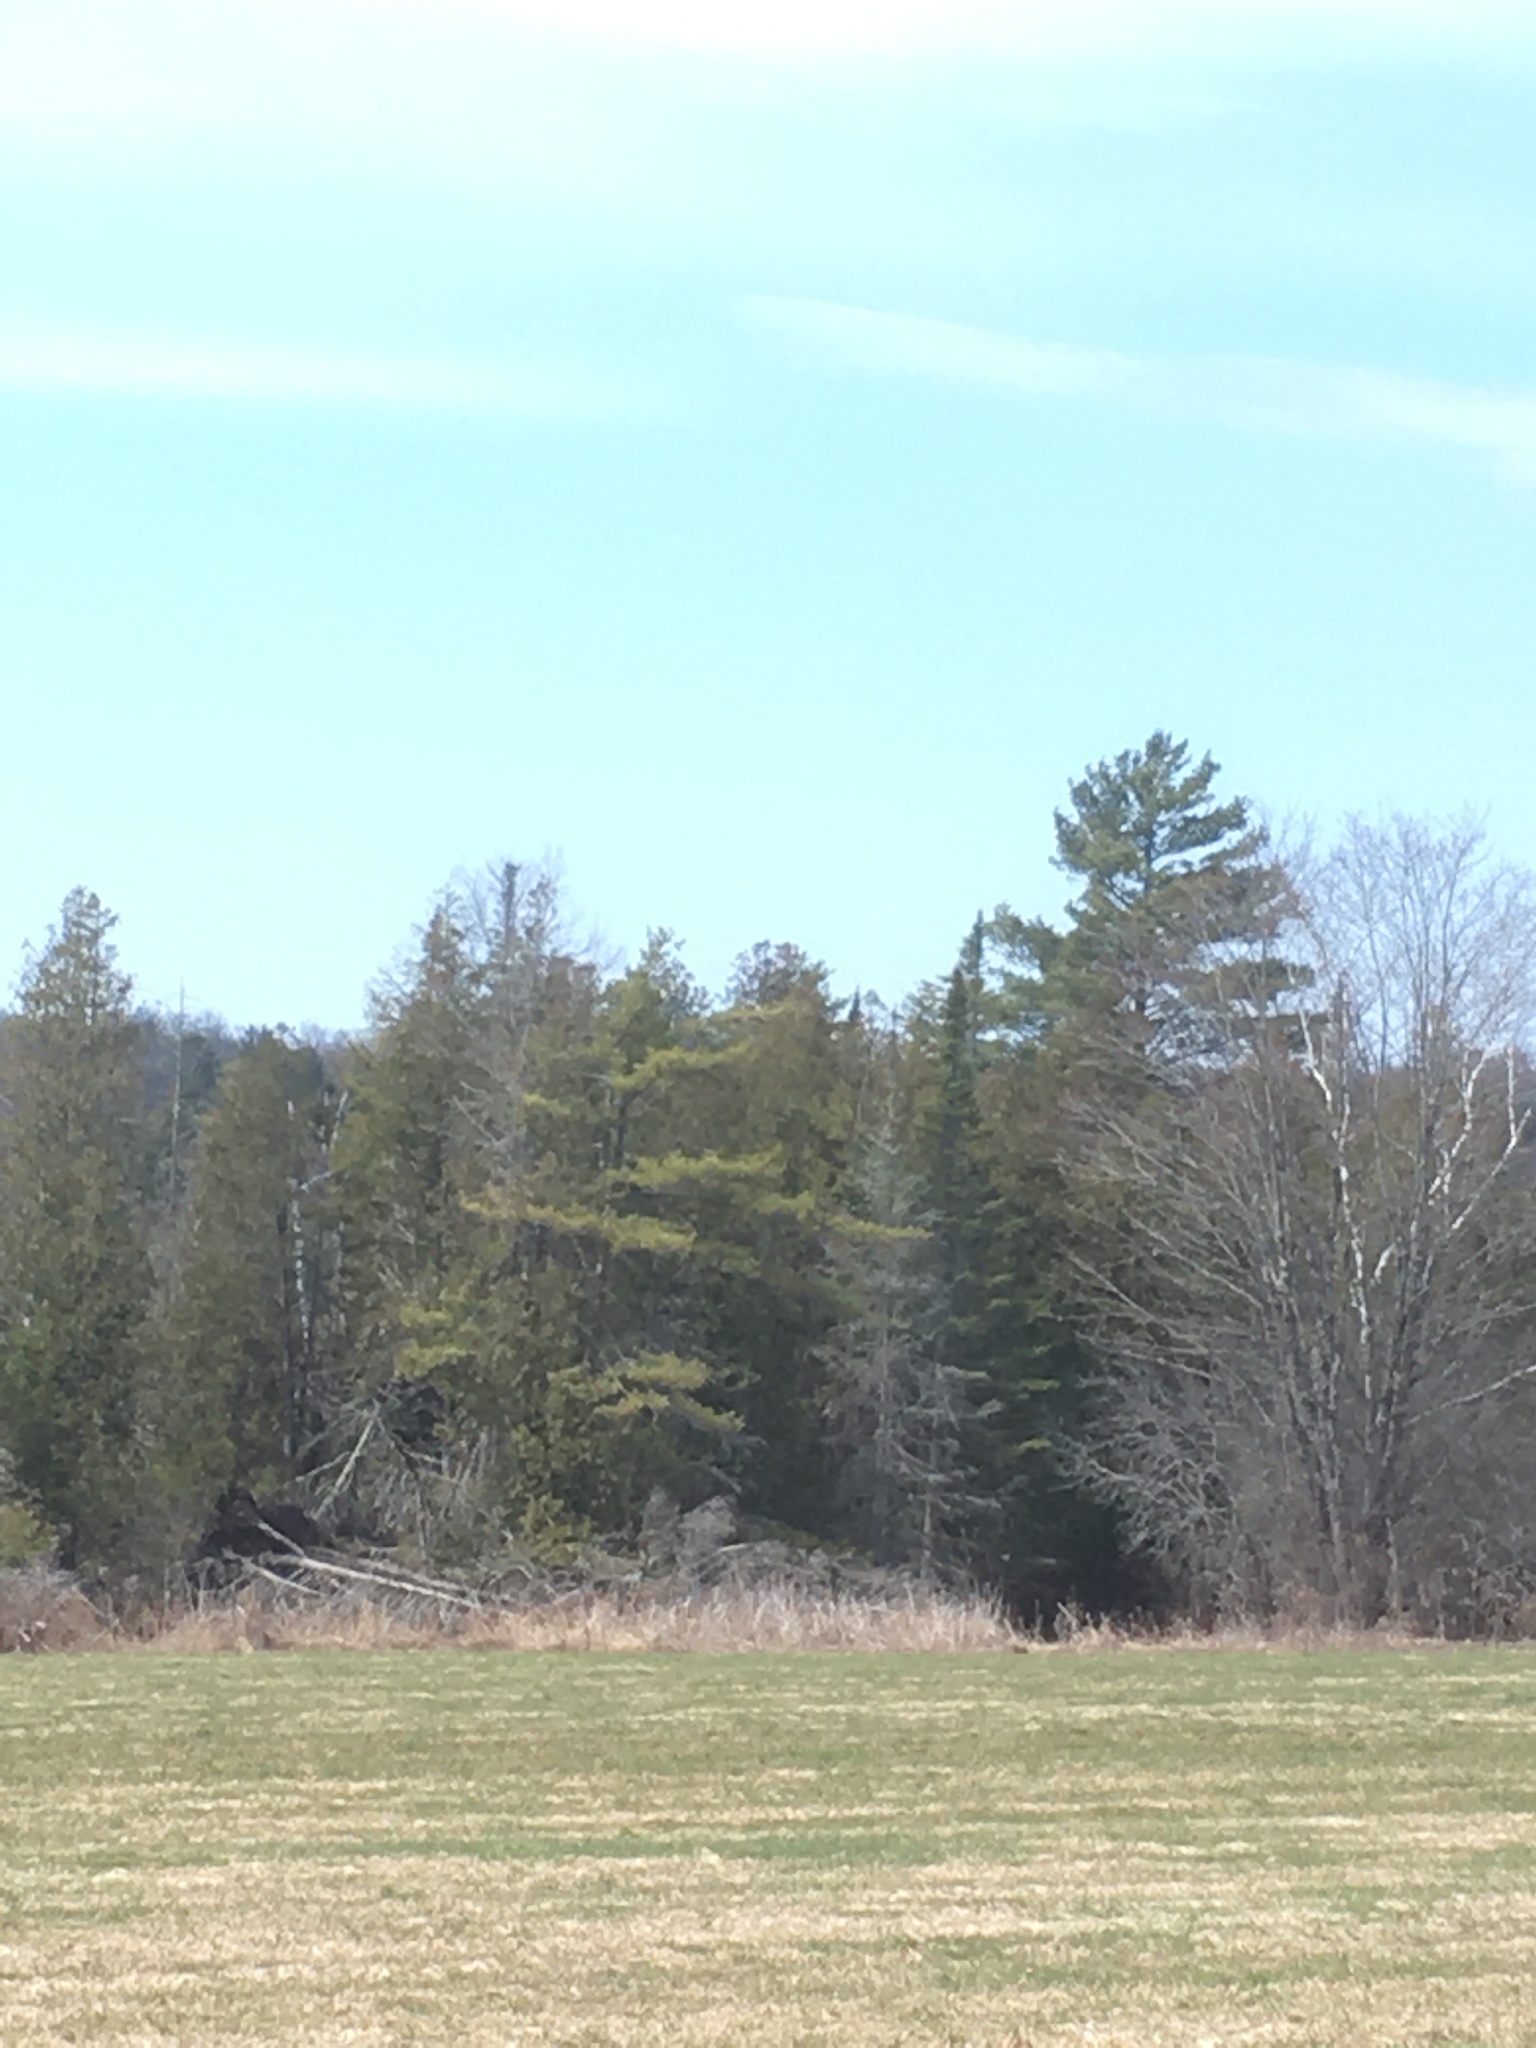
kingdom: Plantae
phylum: Tracheophyta
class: Pinopsida
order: Pinales
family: Pinaceae
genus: Abies
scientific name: Abies balsamea
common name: Balsam fir
